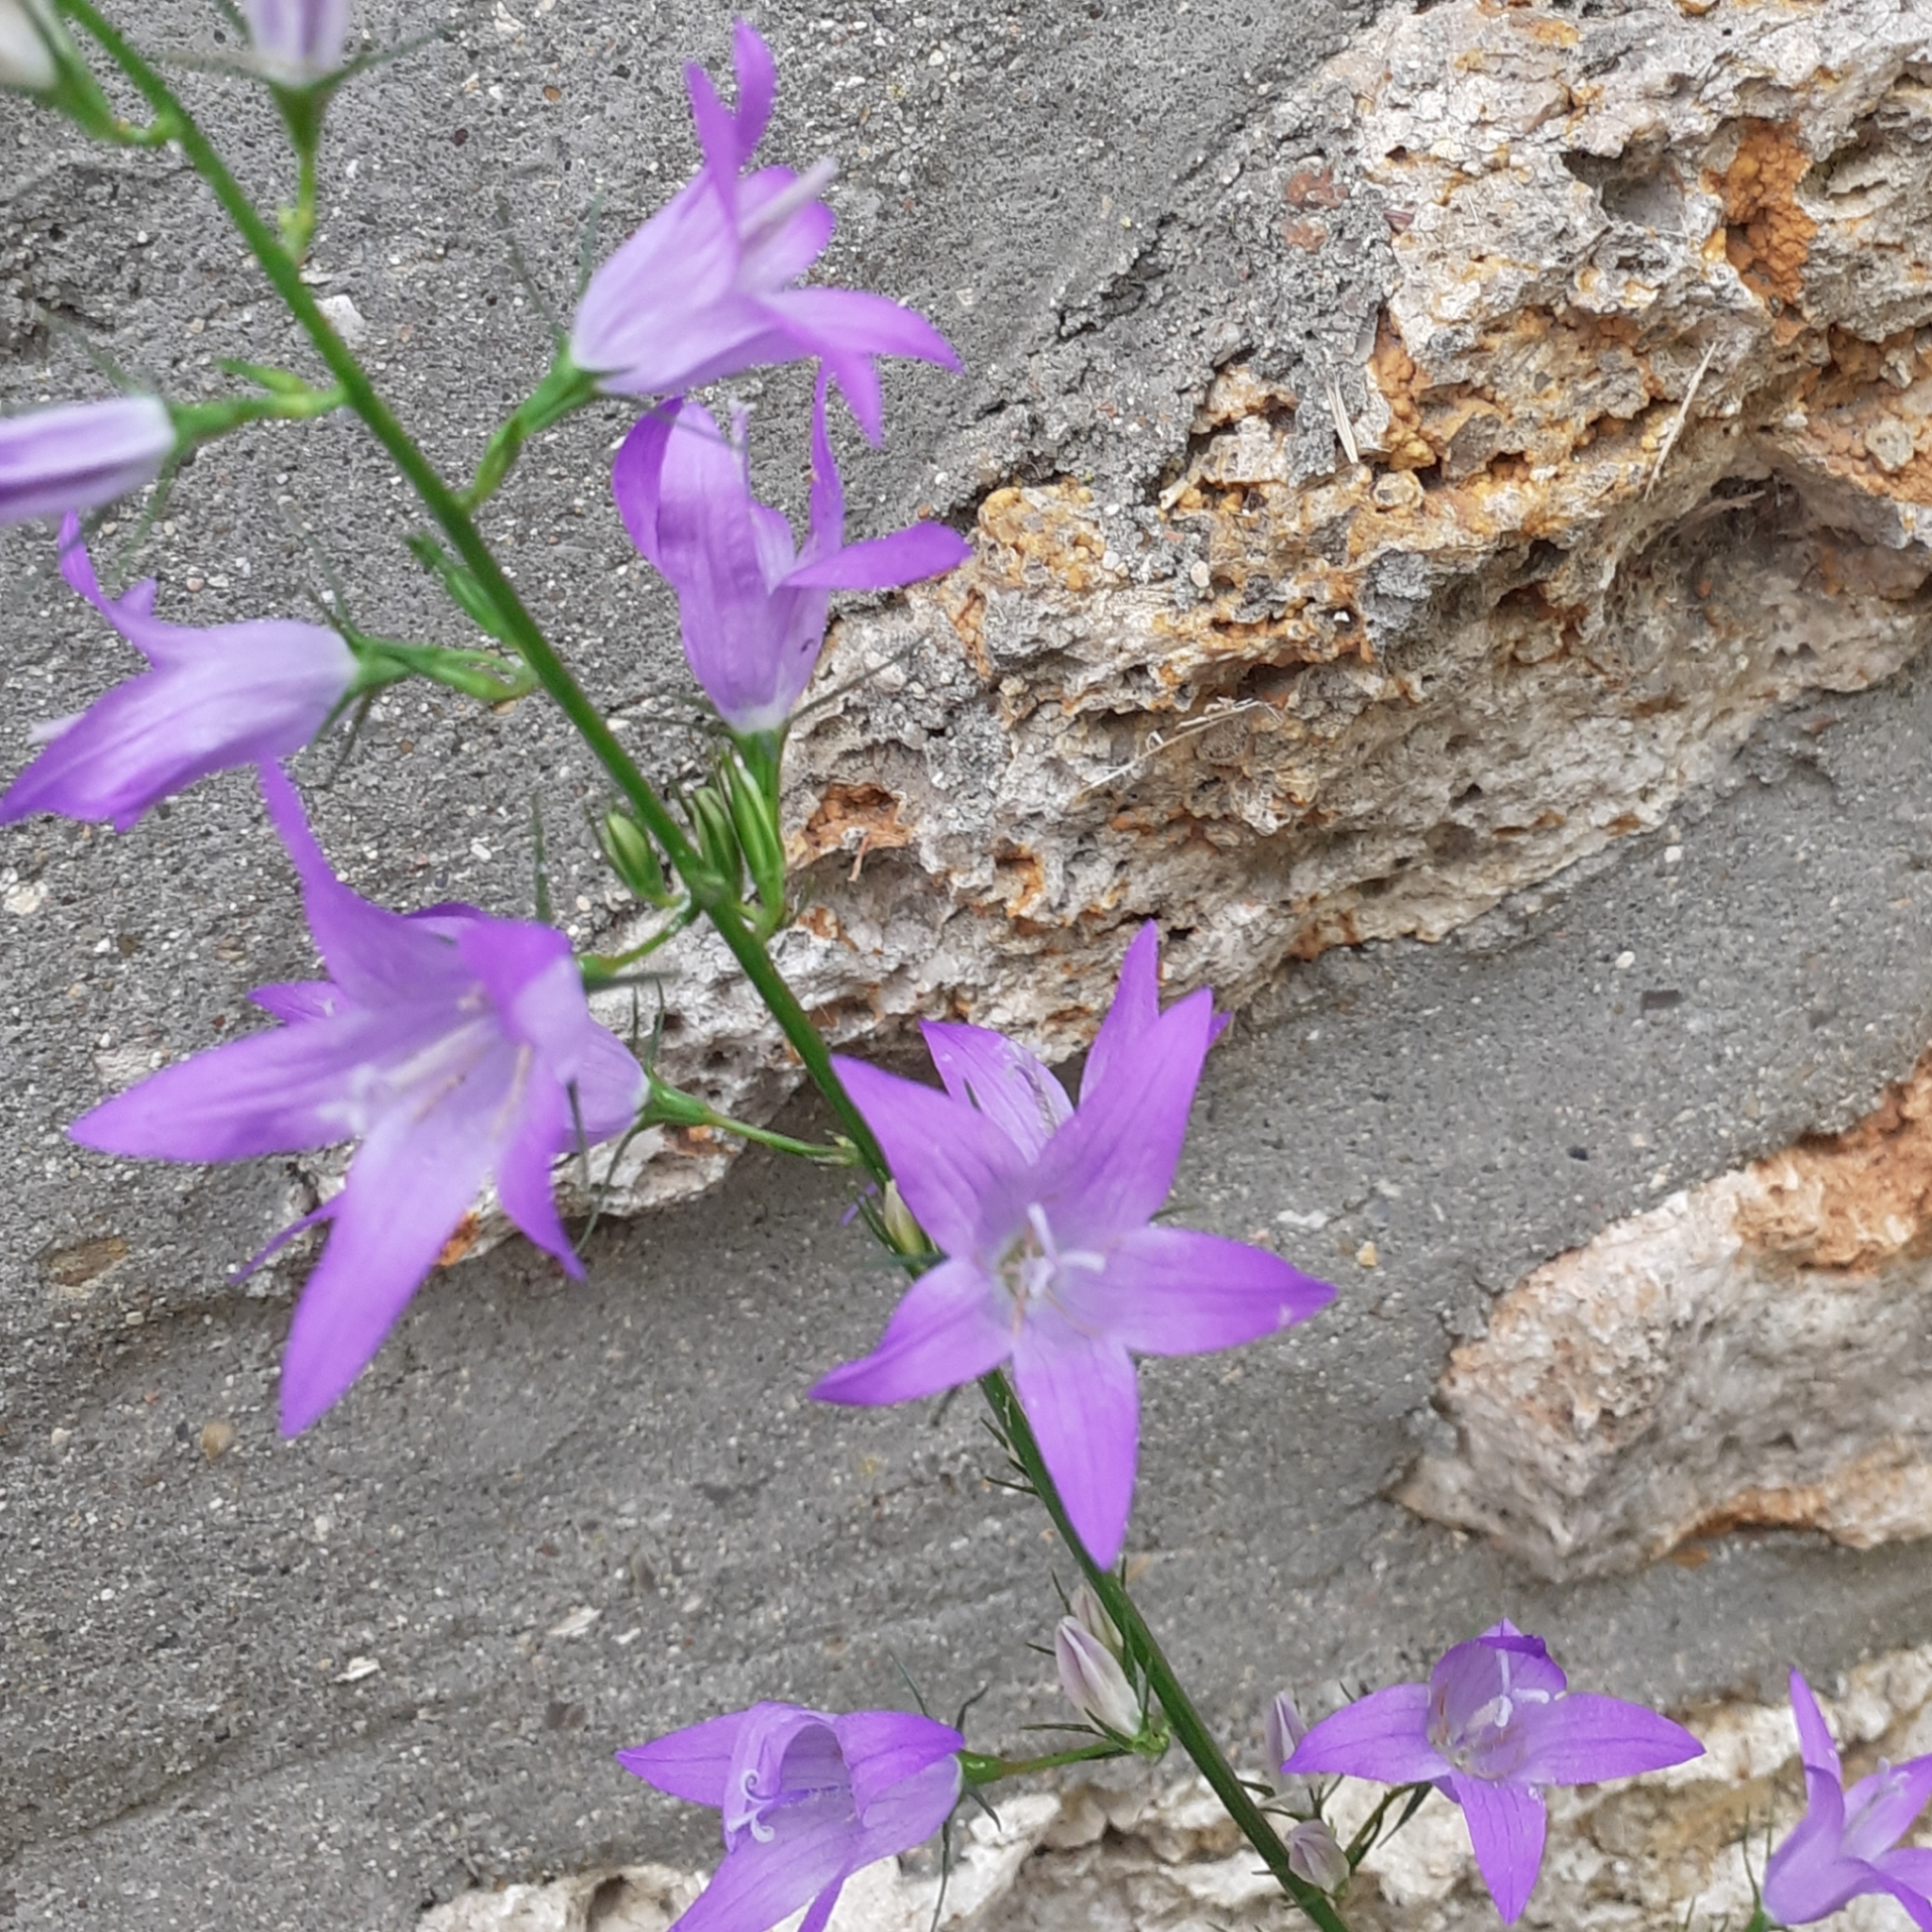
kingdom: Plantae
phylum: Tracheophyta
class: Magnoliopsida
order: Asterales
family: Campanulaceae
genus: Campanula
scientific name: Campanula rapunculus
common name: Rampion bellflower
